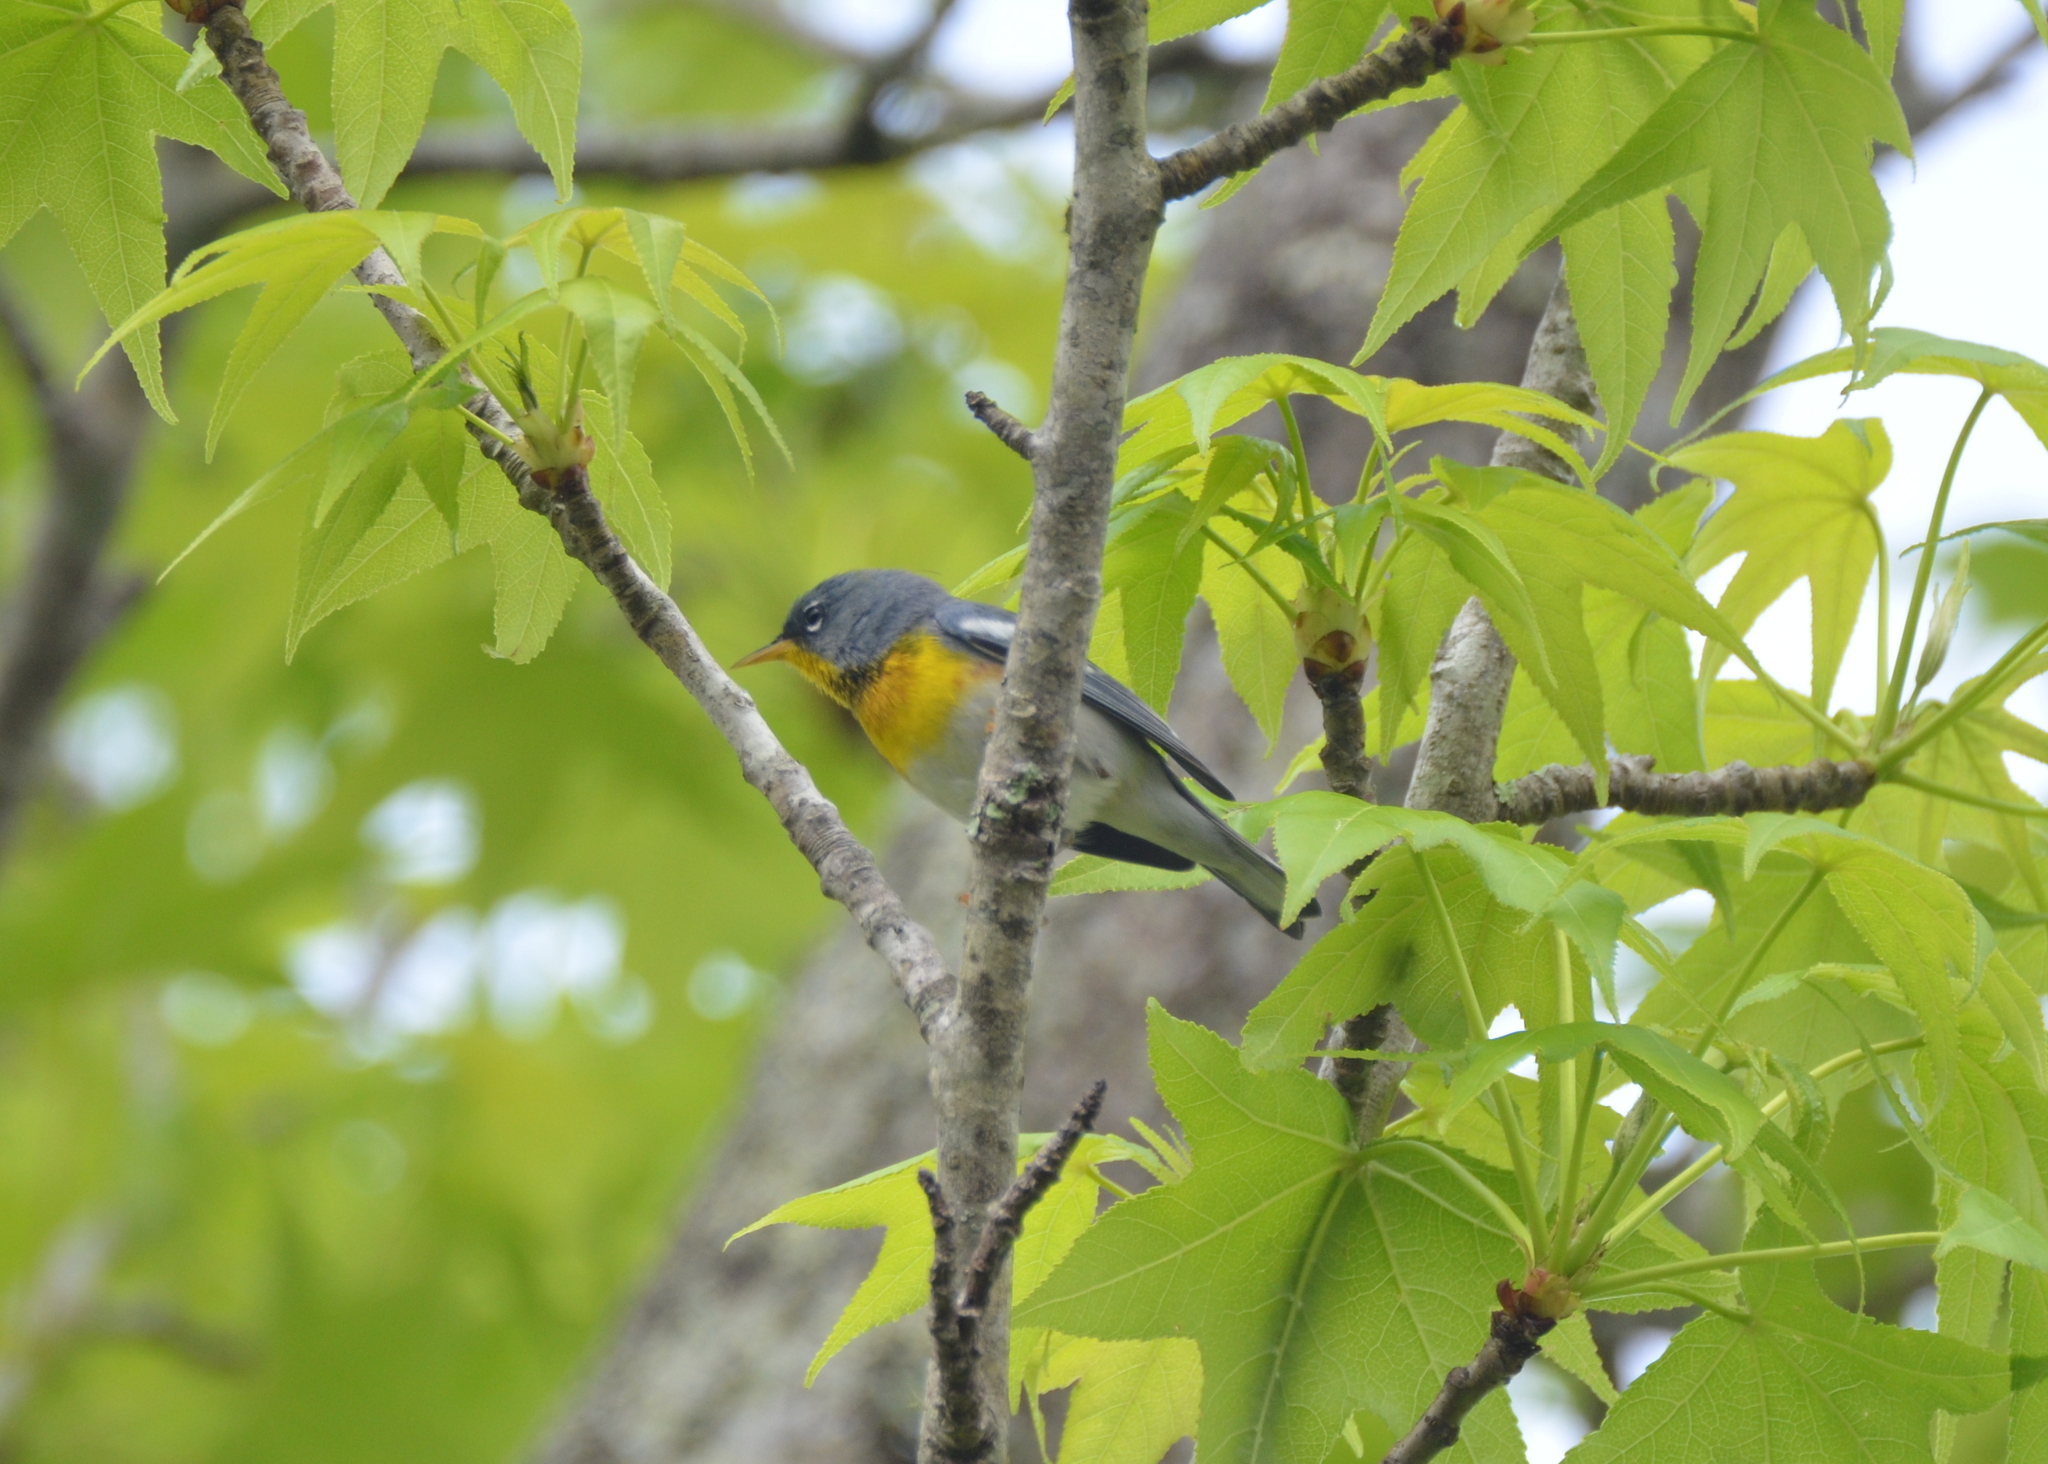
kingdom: Animalia
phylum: Chordata
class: Aves
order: Passeriformes
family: Parulidae
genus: Setophaga
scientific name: Setophaga americana
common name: Northern parula
